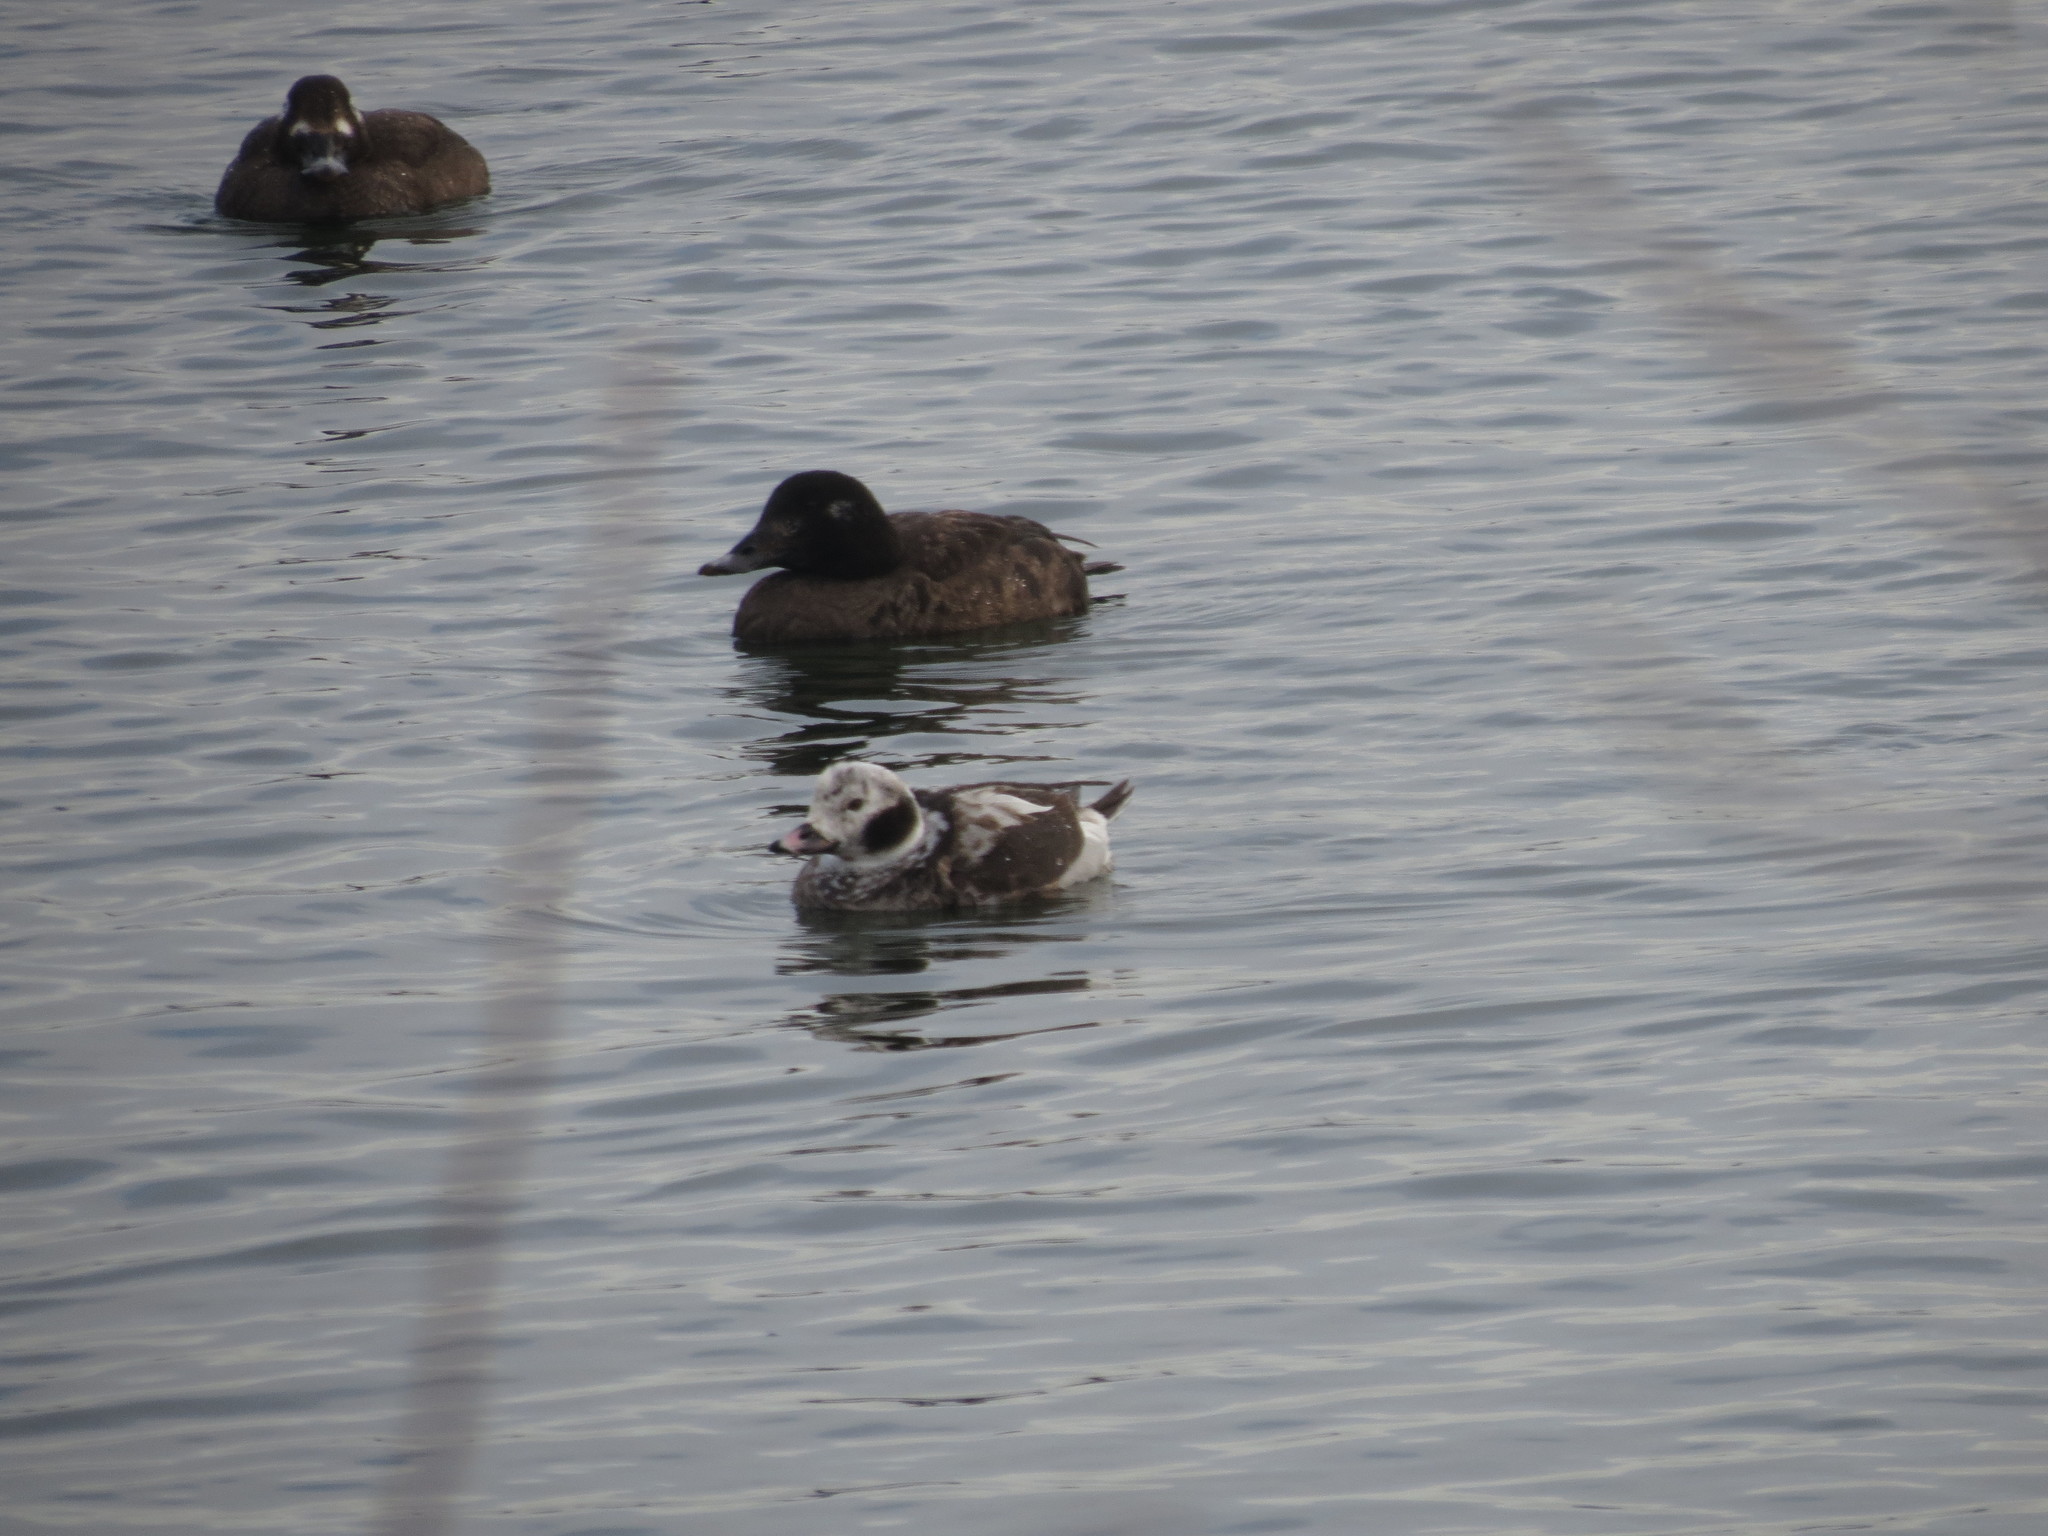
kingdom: Animalia
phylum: Chordata
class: Aves
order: Anseriformes
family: Anatidae
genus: Clangula
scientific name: Clangula hyemalis
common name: Long-tailed duck
